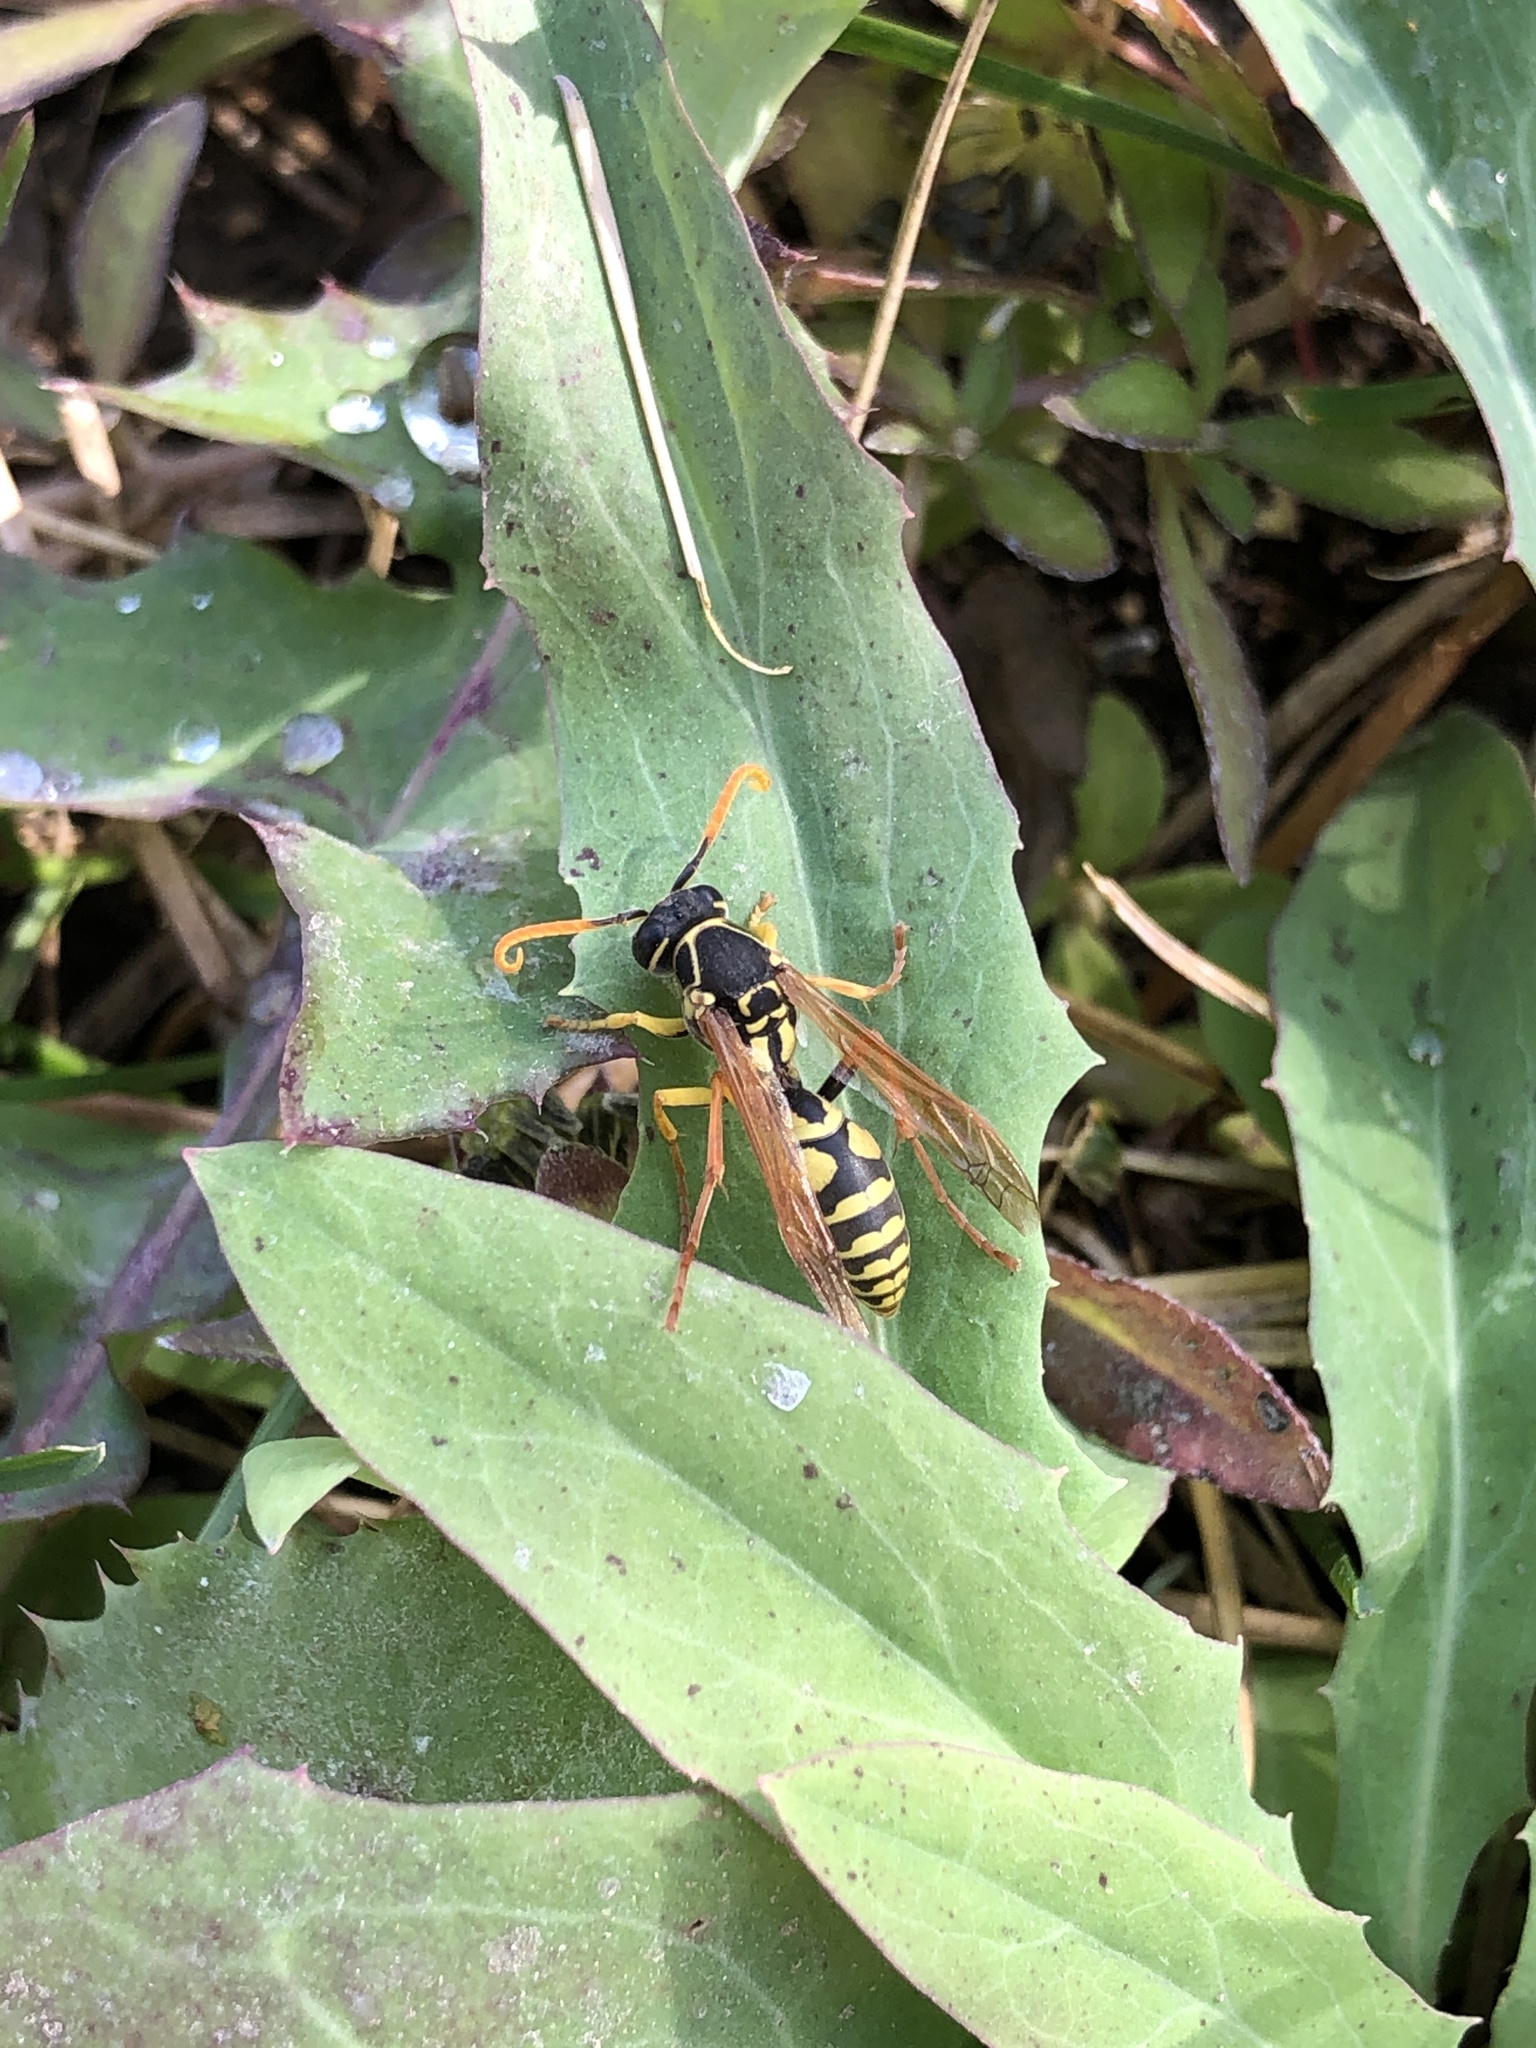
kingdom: Animalia
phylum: Arthropoda
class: Insecta
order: Hymenoptera
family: Eumenidae
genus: Polistes
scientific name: Polistes chinensis
